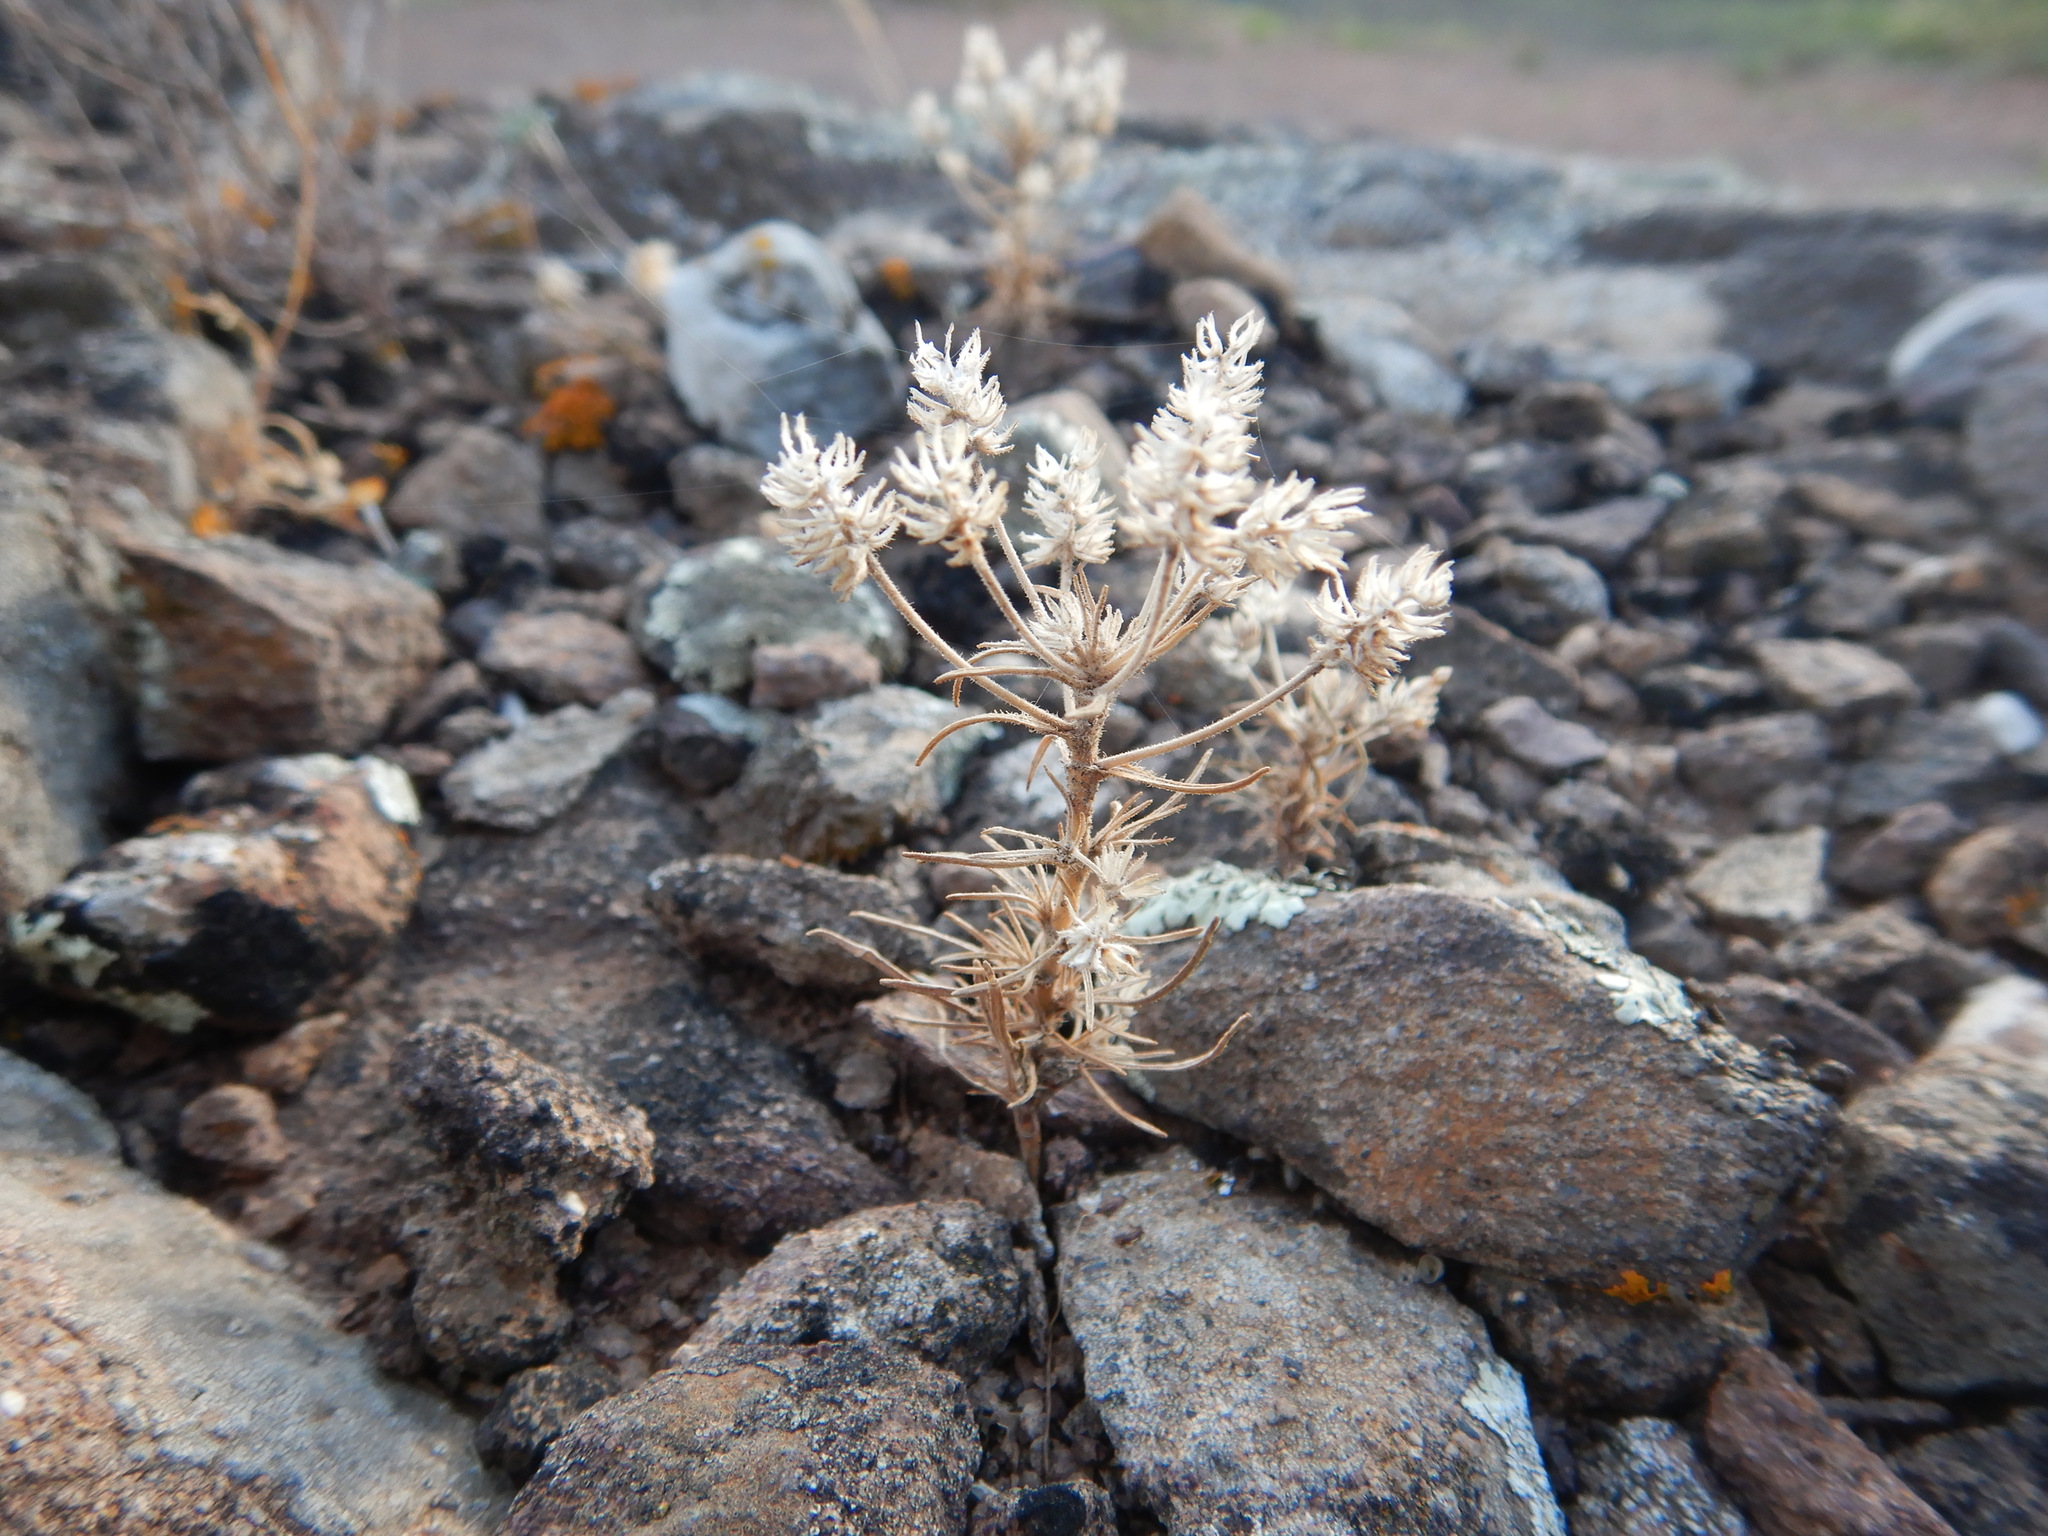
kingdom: Plantae
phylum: Tracheophyta
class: Magnoliopsida
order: Lamiales
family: Plantaginaceae
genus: Plantago
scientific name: Plantago afra
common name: Glandular plantain
